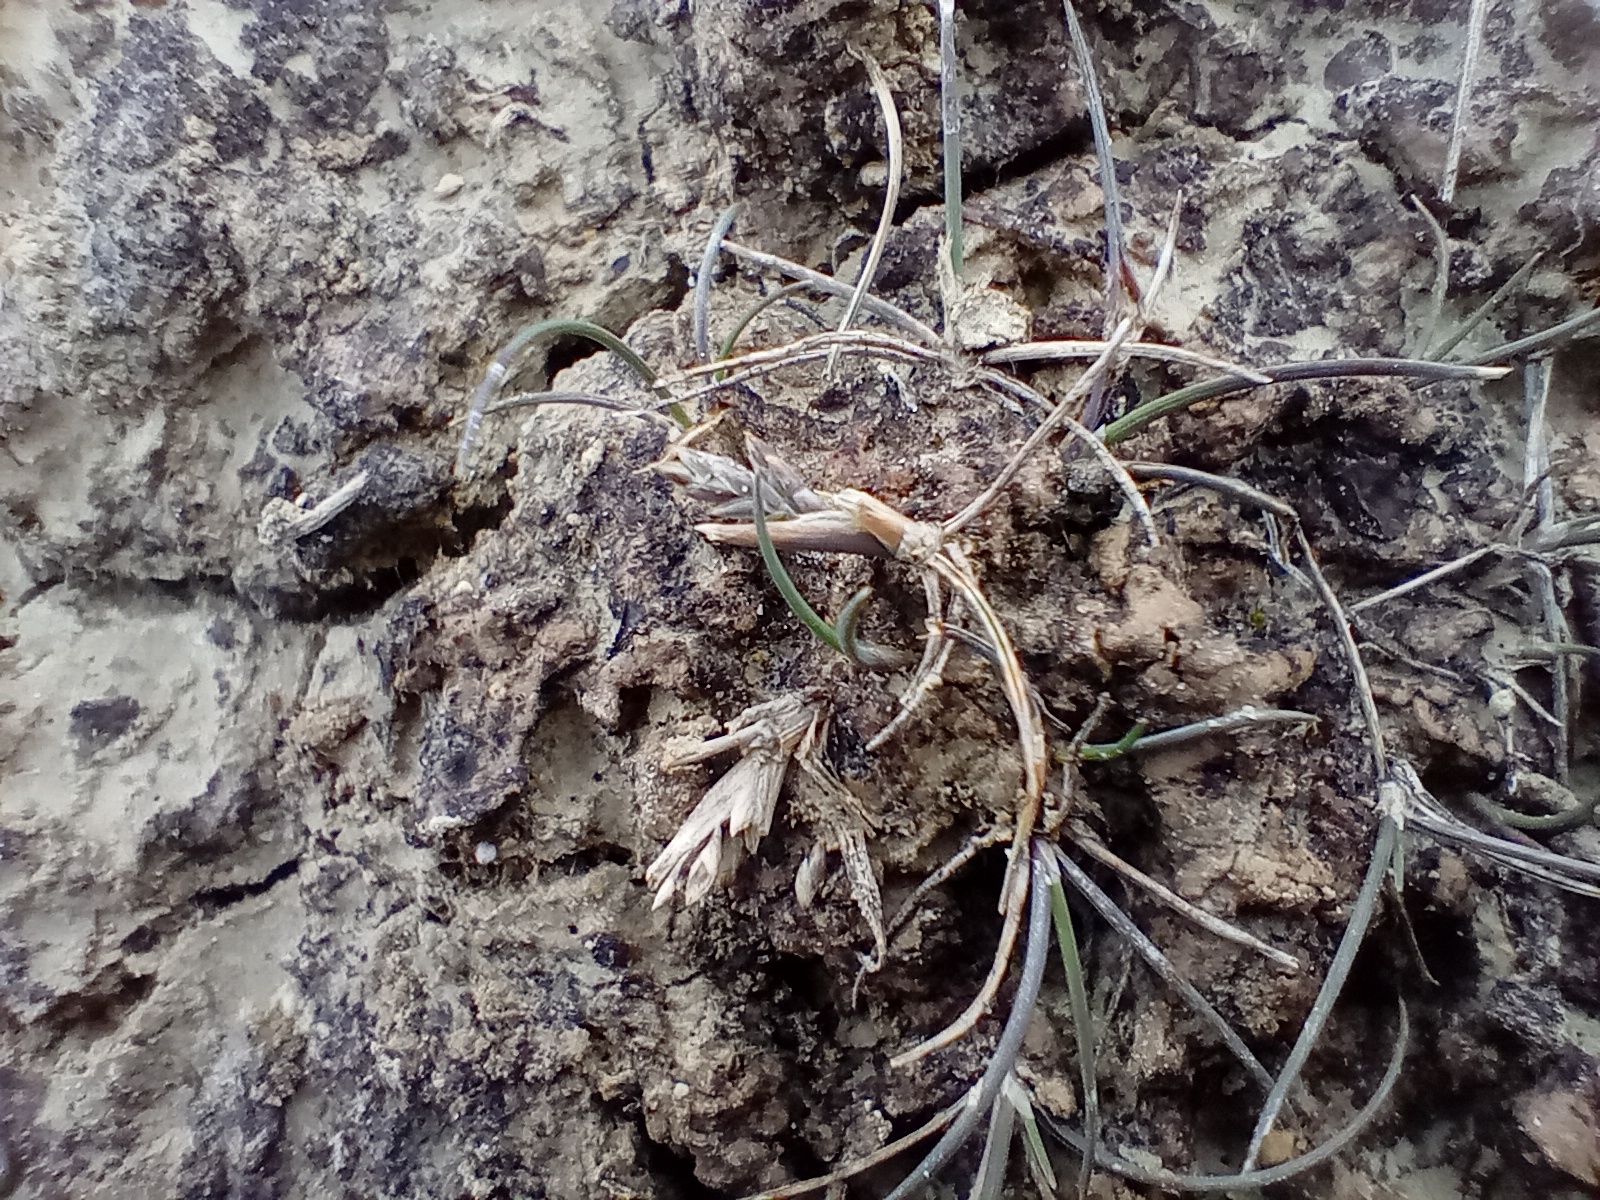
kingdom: Plantae
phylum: Tracheophyta
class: Liliopsida
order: Poales
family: Poaceae
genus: Puccinellia
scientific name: Puccinellia raroflorens
